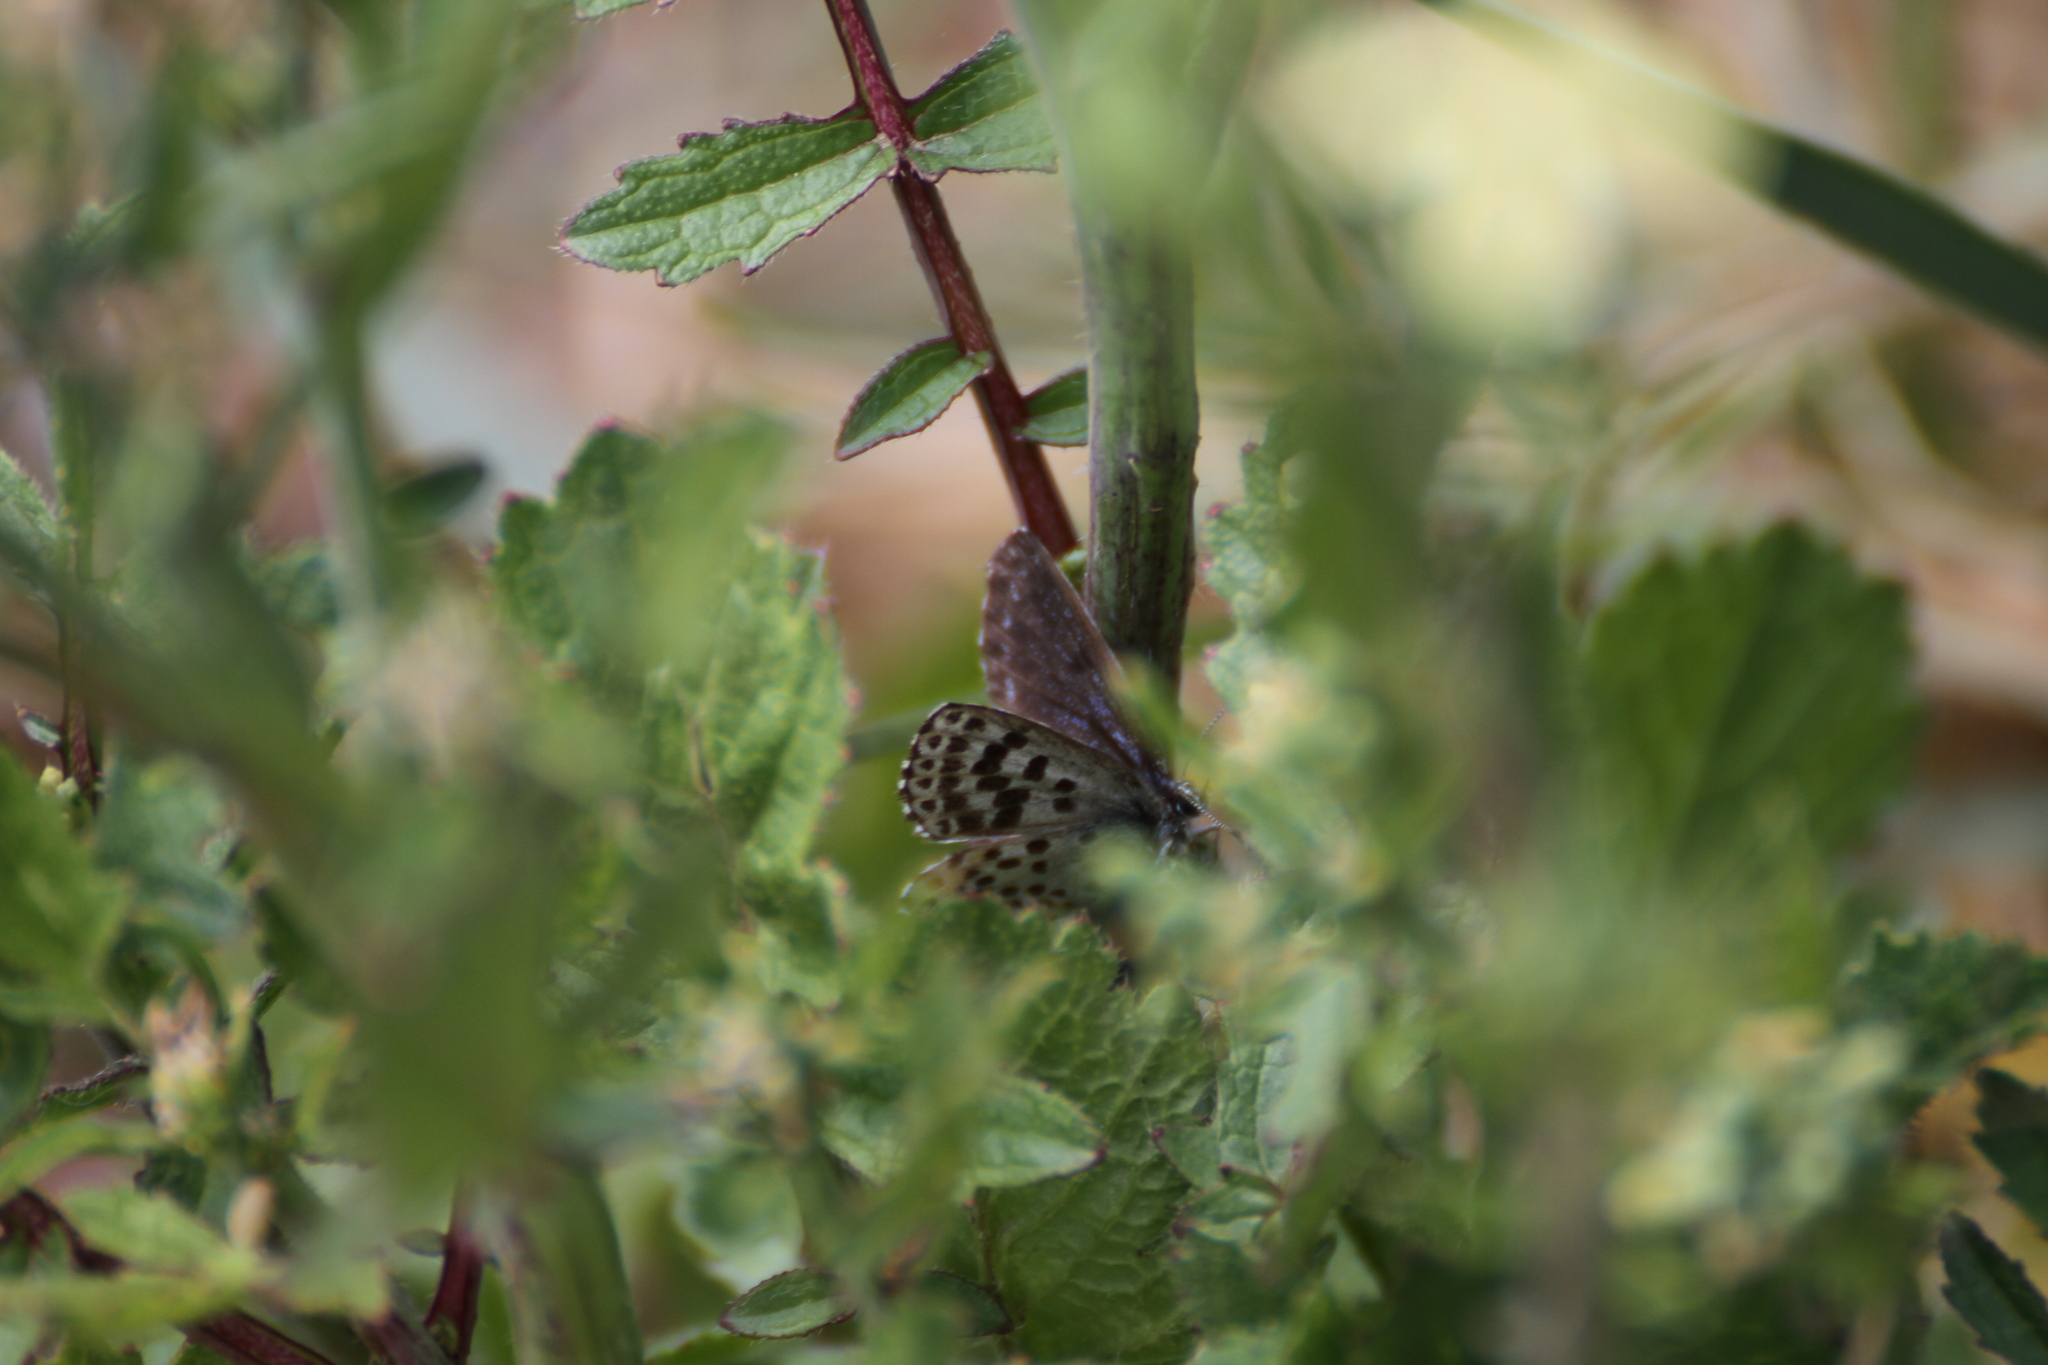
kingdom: Animalia
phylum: Arthropoda
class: Insecta
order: Lepidoptera
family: Lycaenidae
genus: Scolitantides
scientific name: Scolitantides orion
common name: Chequered blue
